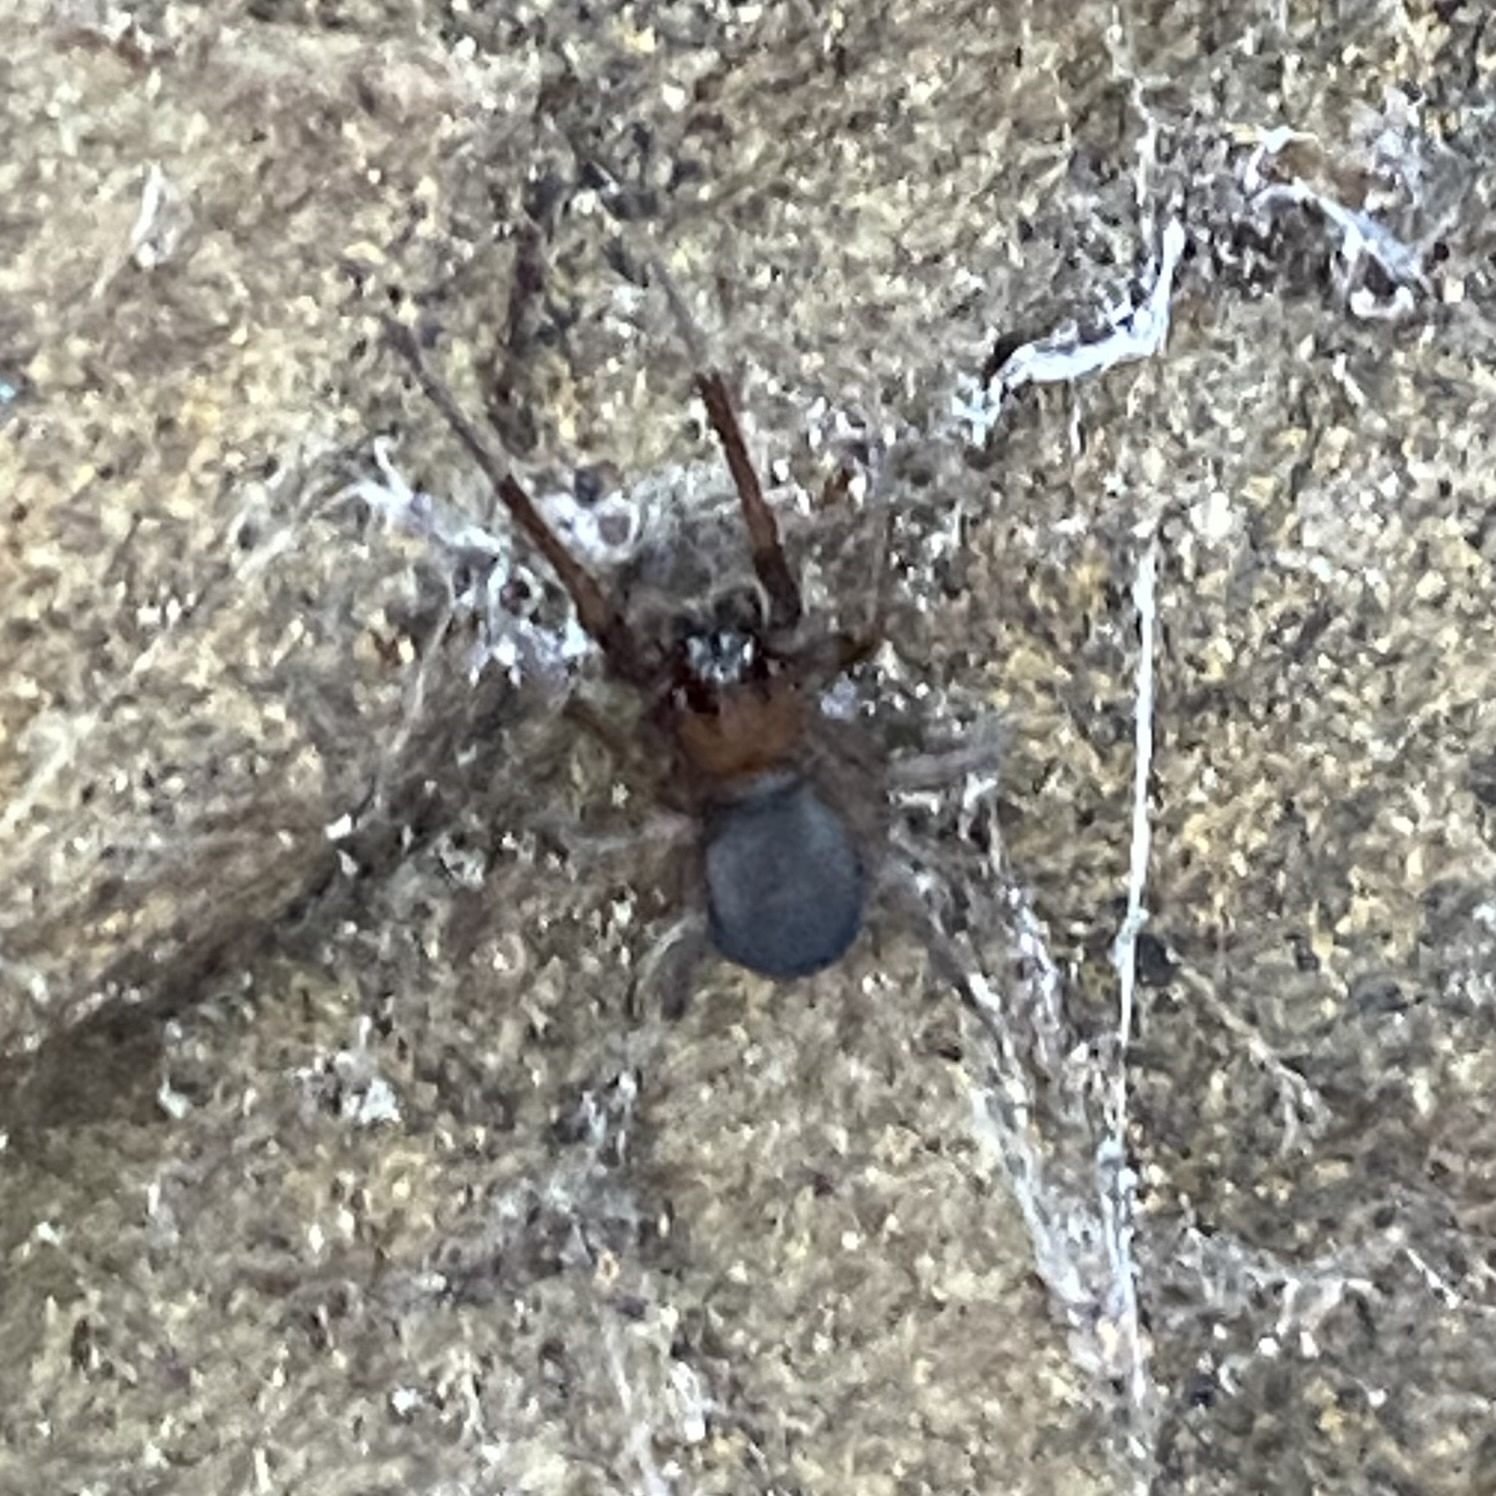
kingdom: Animalia
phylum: Arthropoda
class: Arachnida
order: Araneae
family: Desidae
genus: Metaltella
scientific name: Metaltella simoni
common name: Cribellate spider
